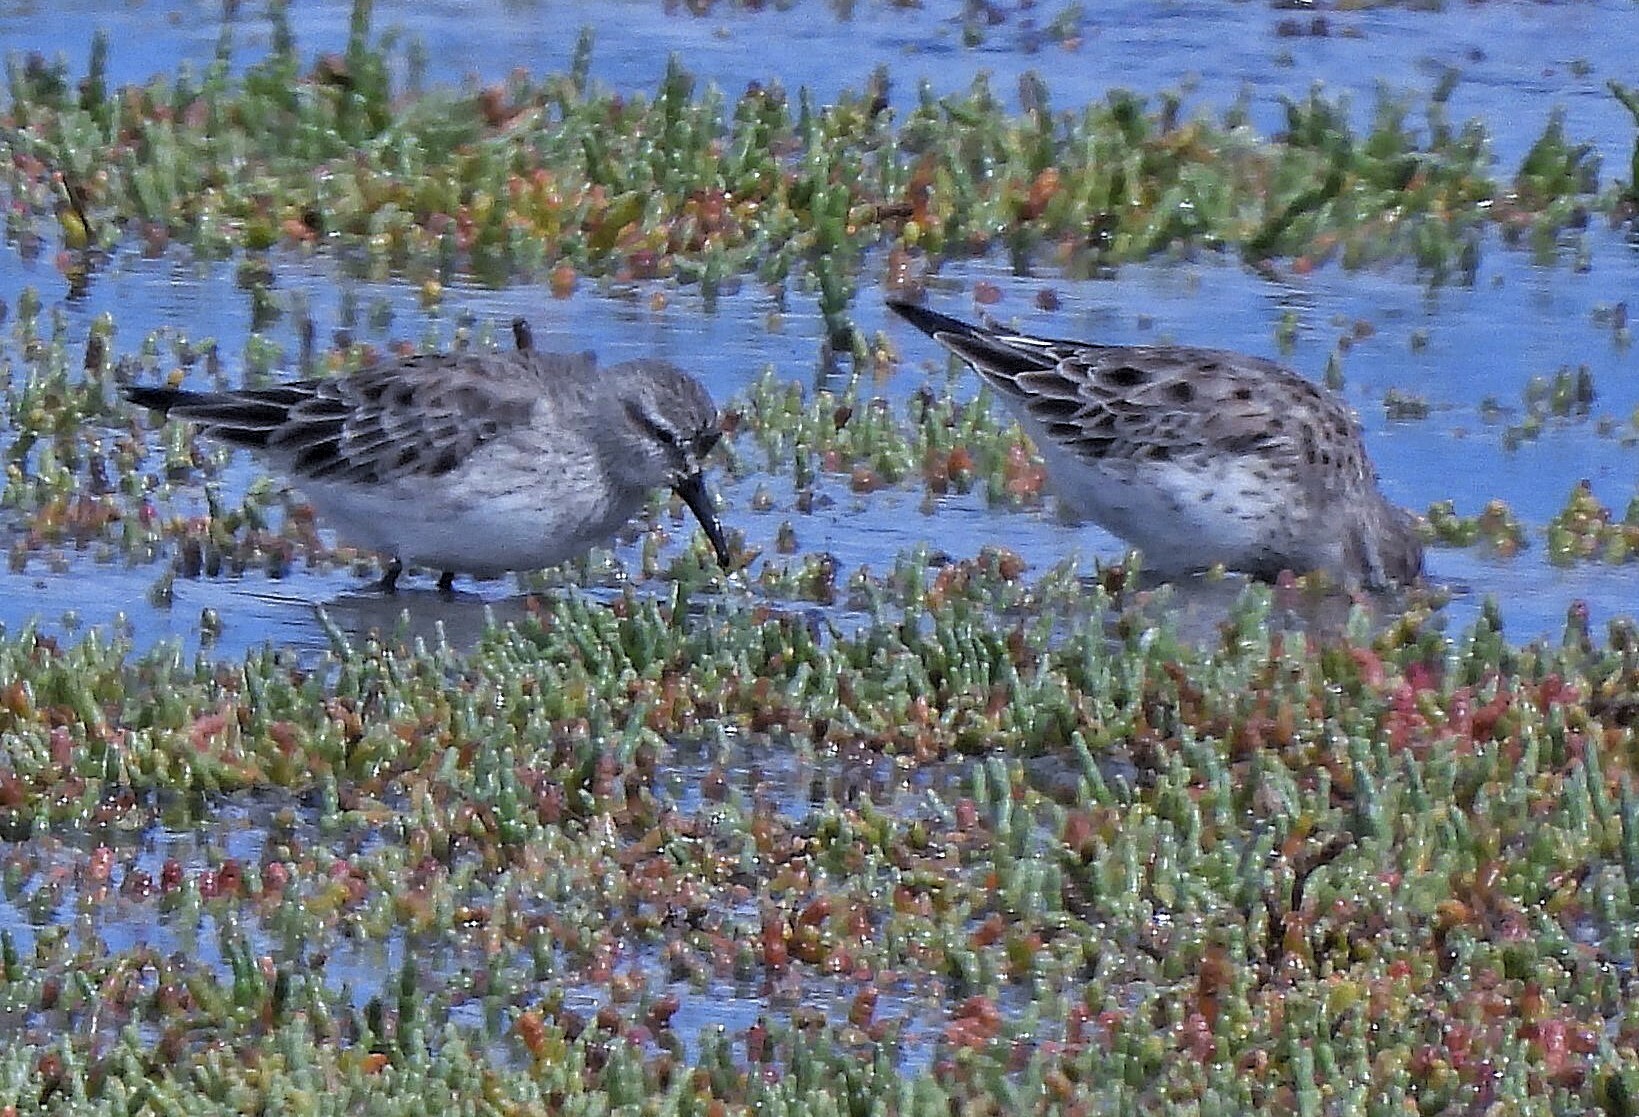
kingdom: Animalia
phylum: Chordata
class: Aves
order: Charadriiformes
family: Scolopacidae
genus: Calidris
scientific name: Calidris fuscicollis
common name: White-rumped sandpiper
